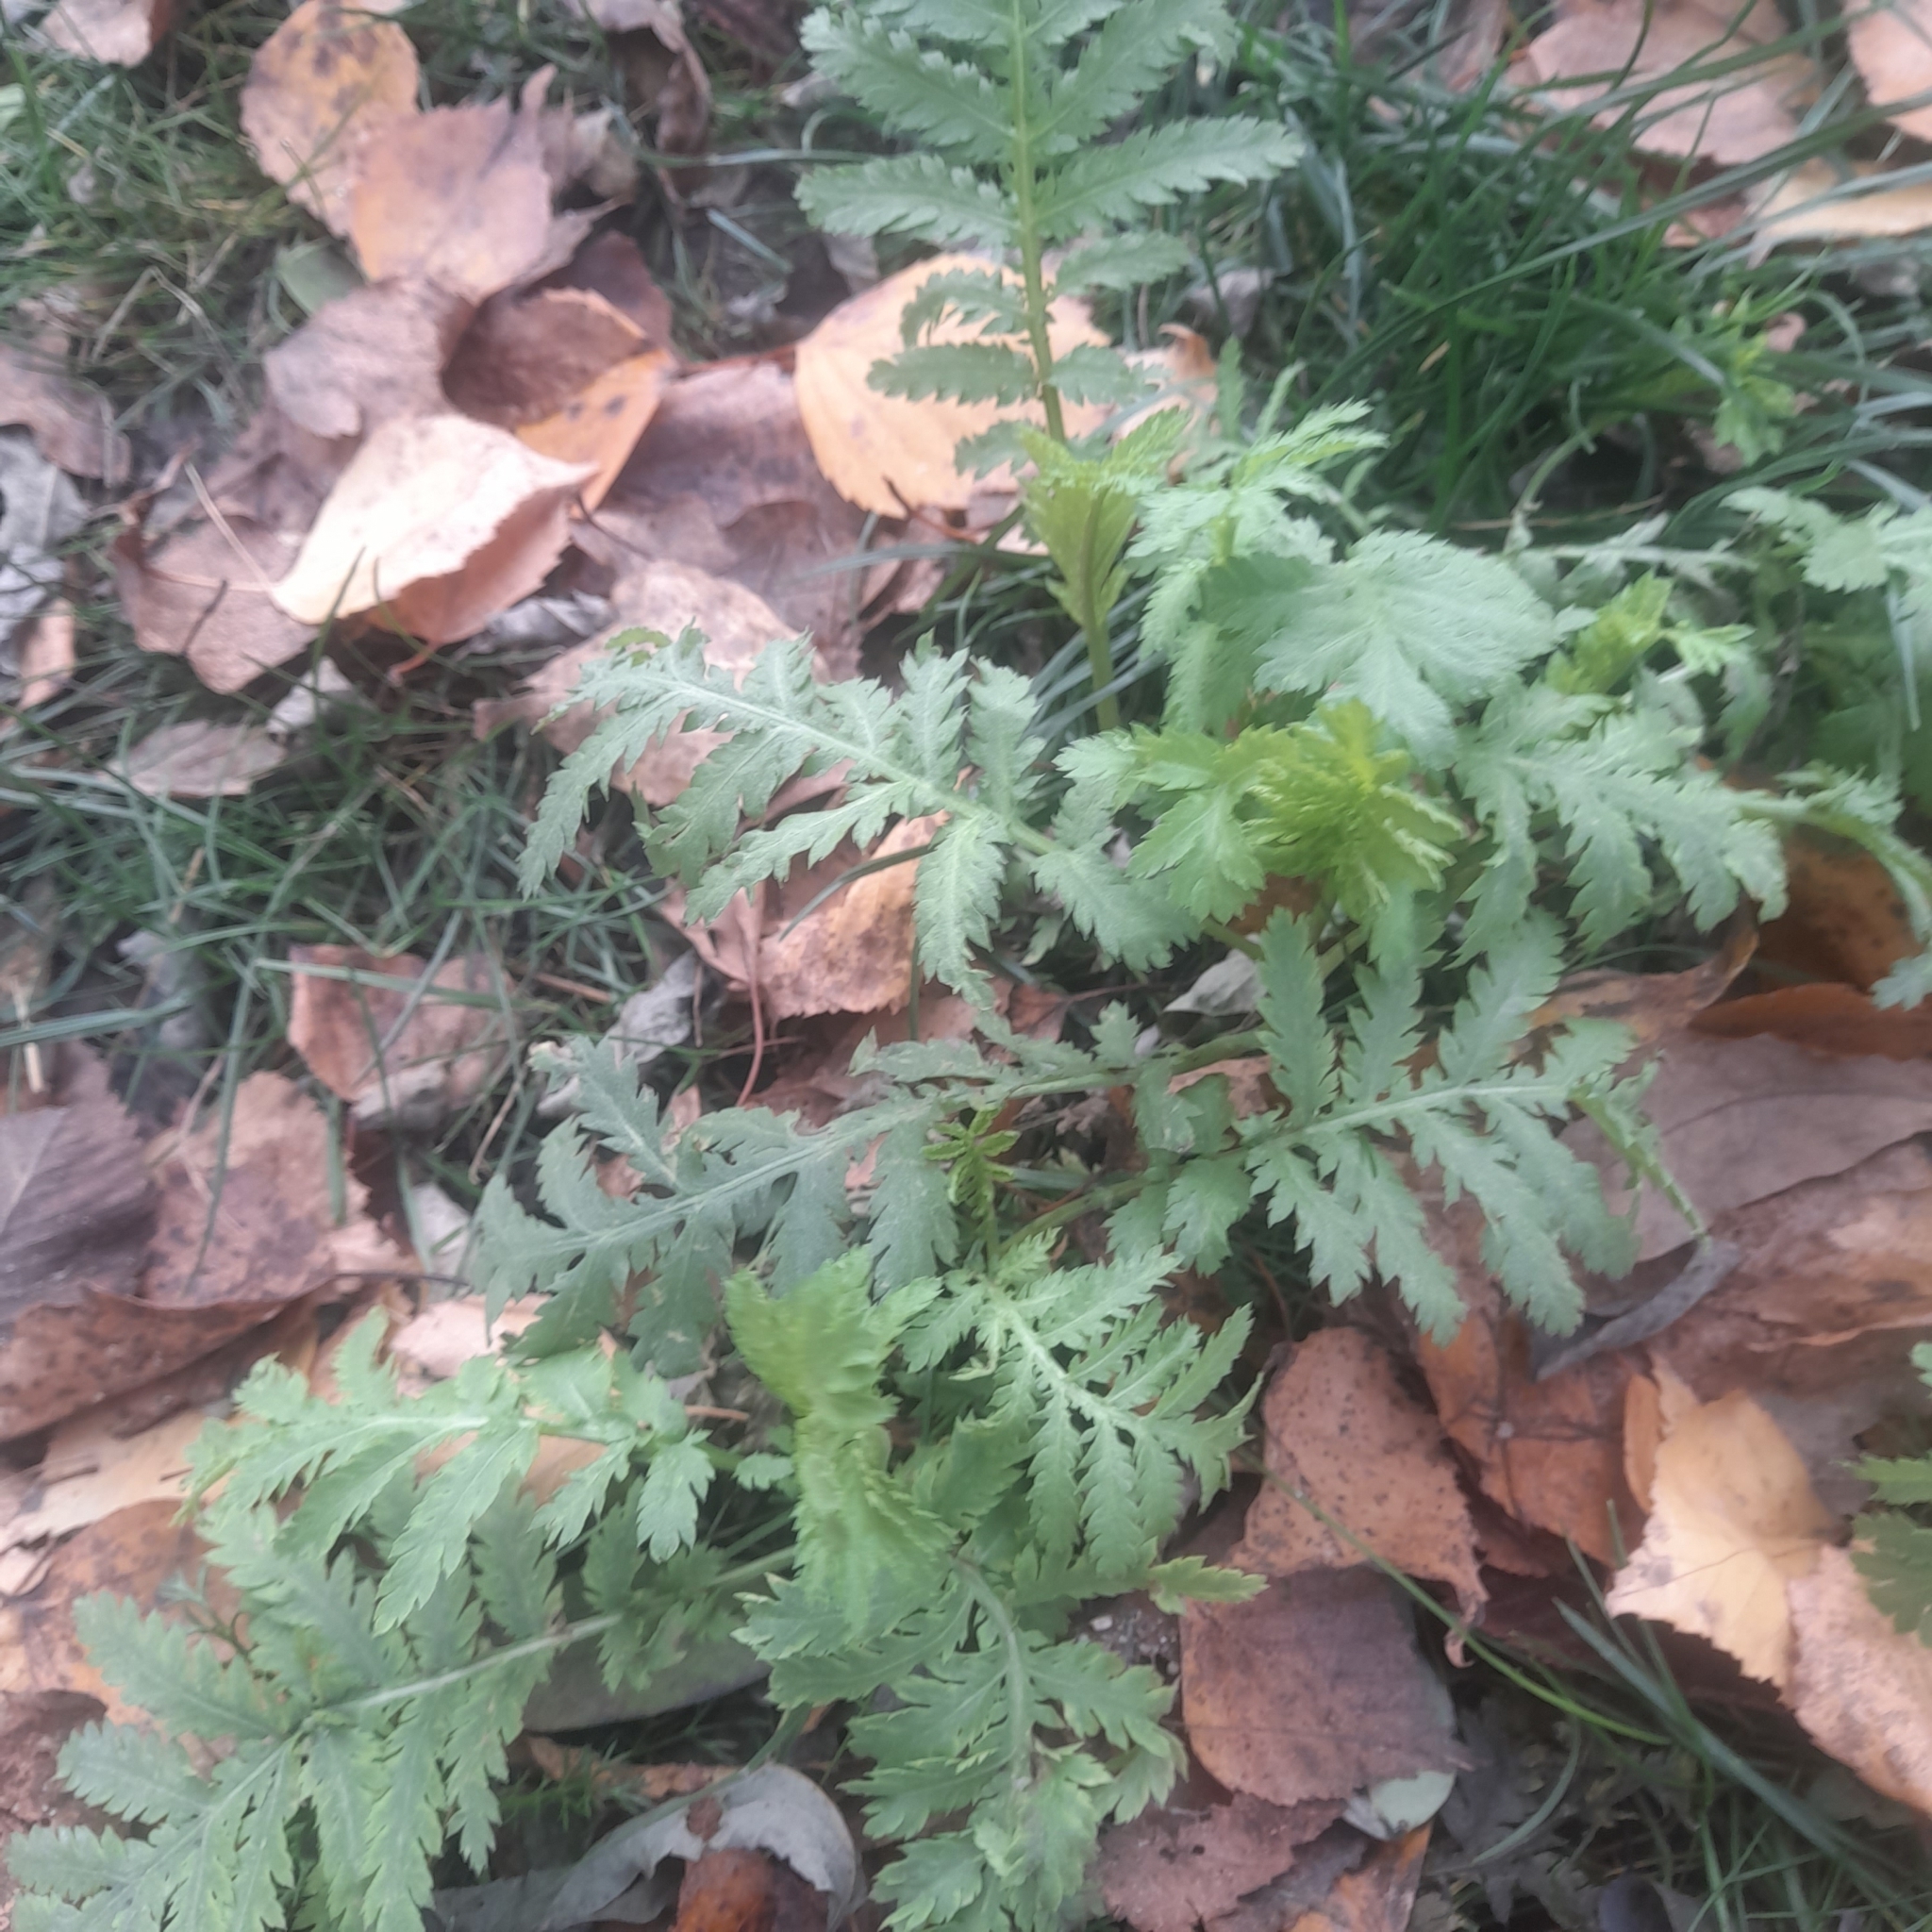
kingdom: Plantae
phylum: Tracheophyta
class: Magnoliopsida
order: Asterales
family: Asteraceae
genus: Tanacetum
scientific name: Tanacetum vulgare
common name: Common tansy
